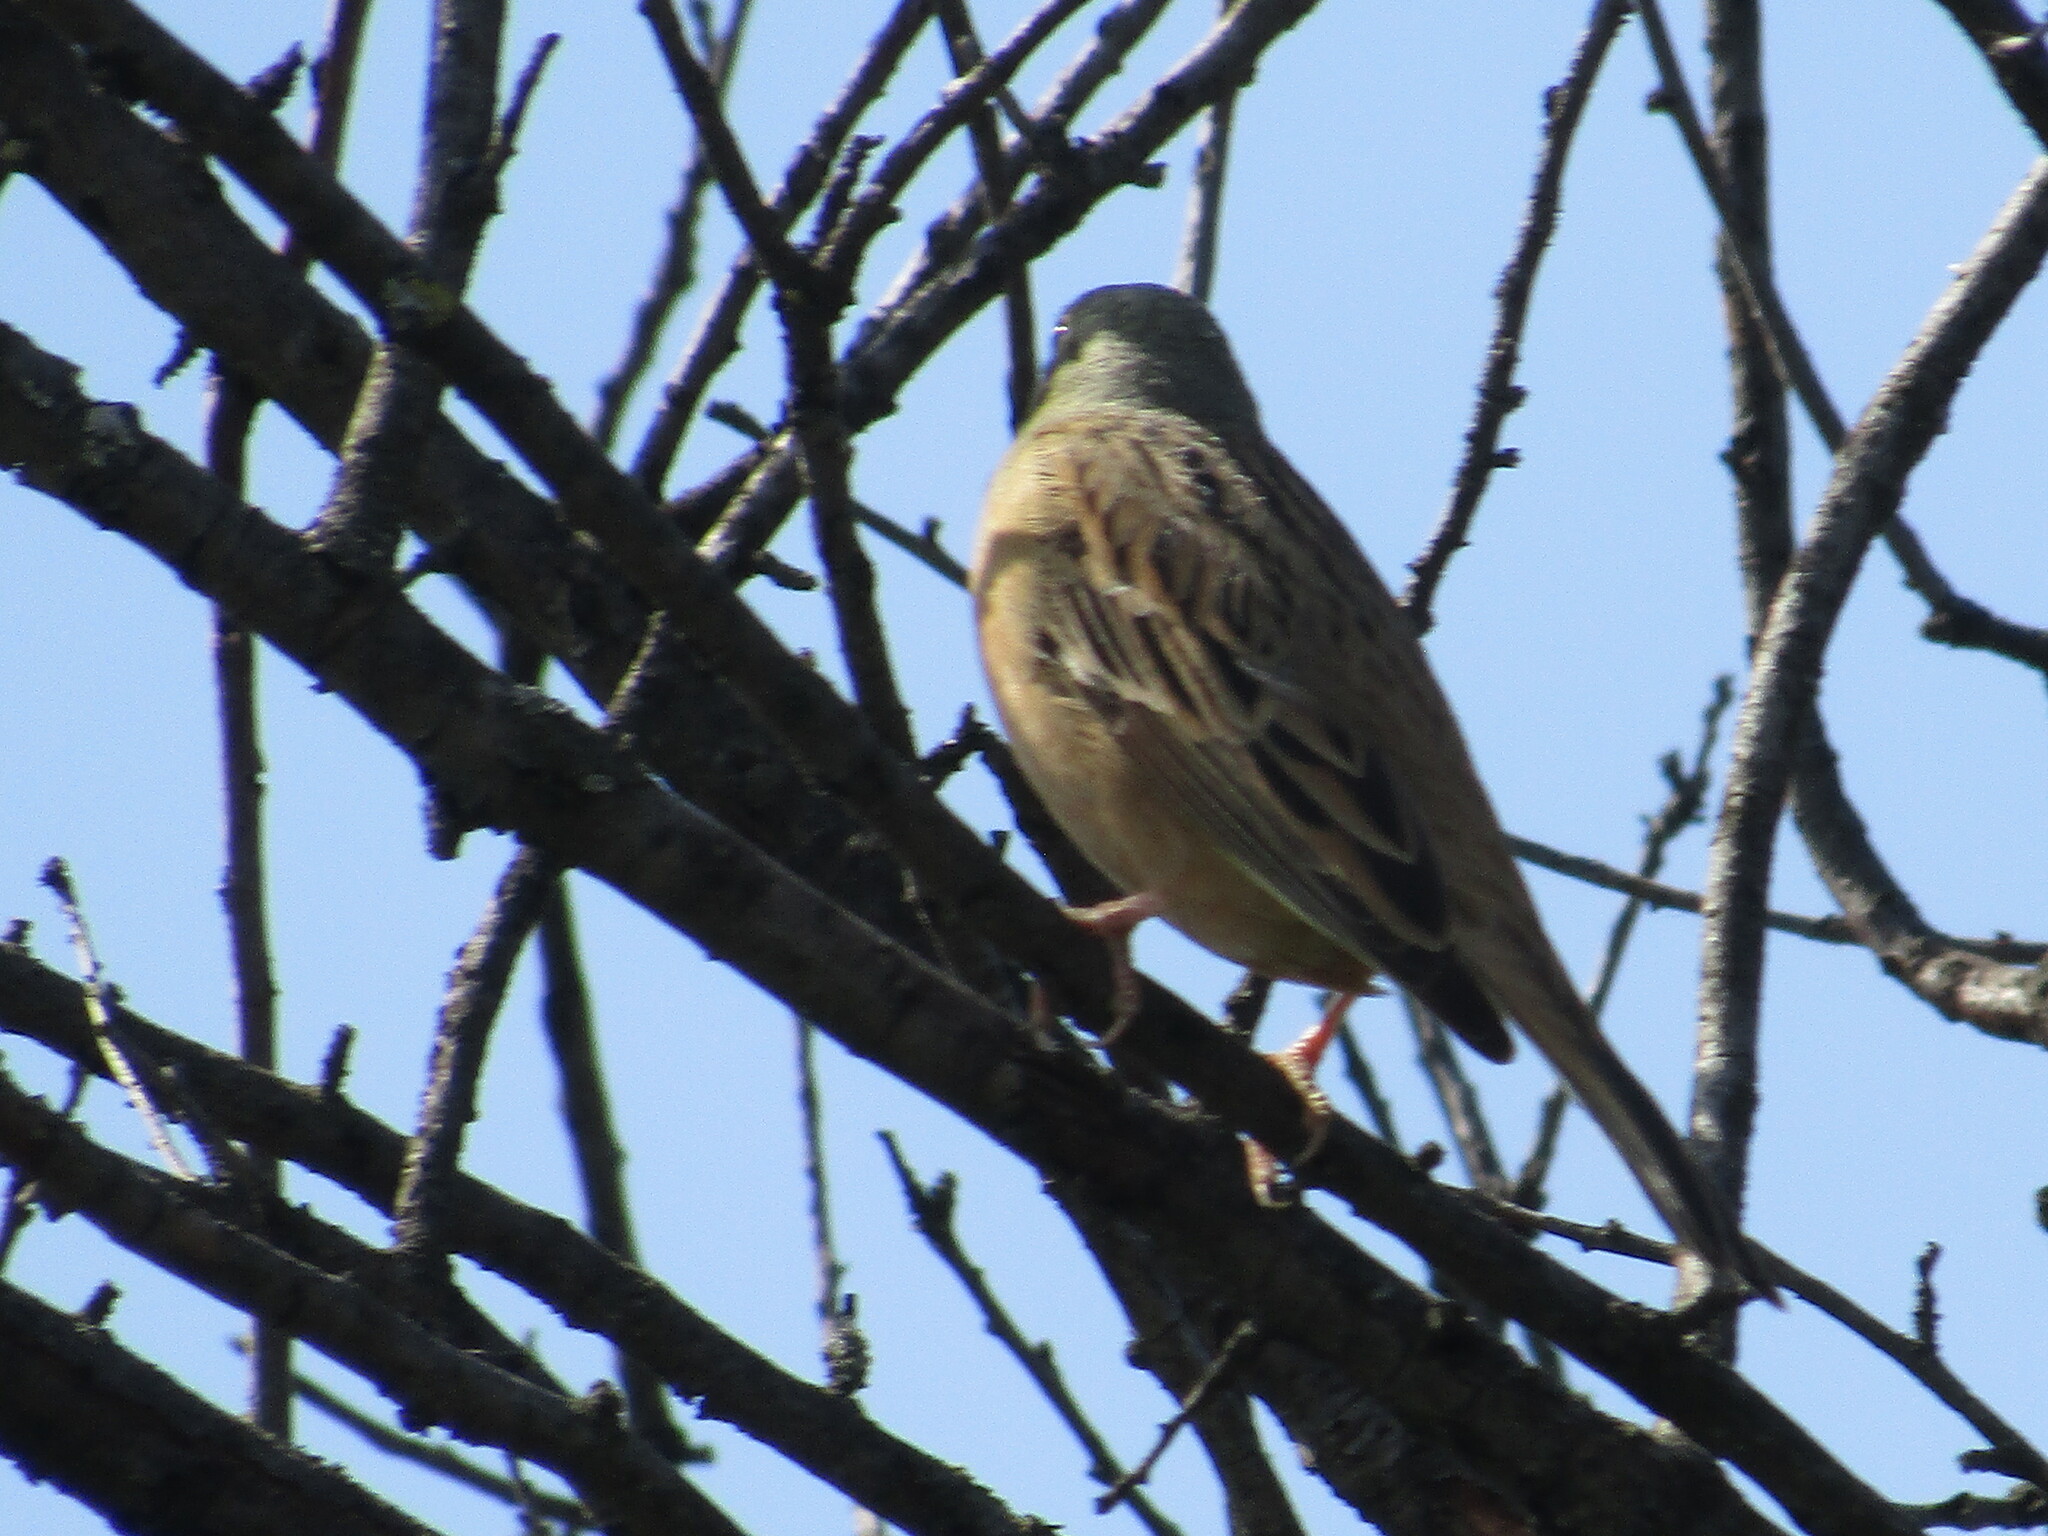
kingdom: Animalia
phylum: Chordata
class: Aves
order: Passeriformes
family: Emberizidae
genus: Emberiza
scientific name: Emberiza hortulana
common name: Ortolan bunting
